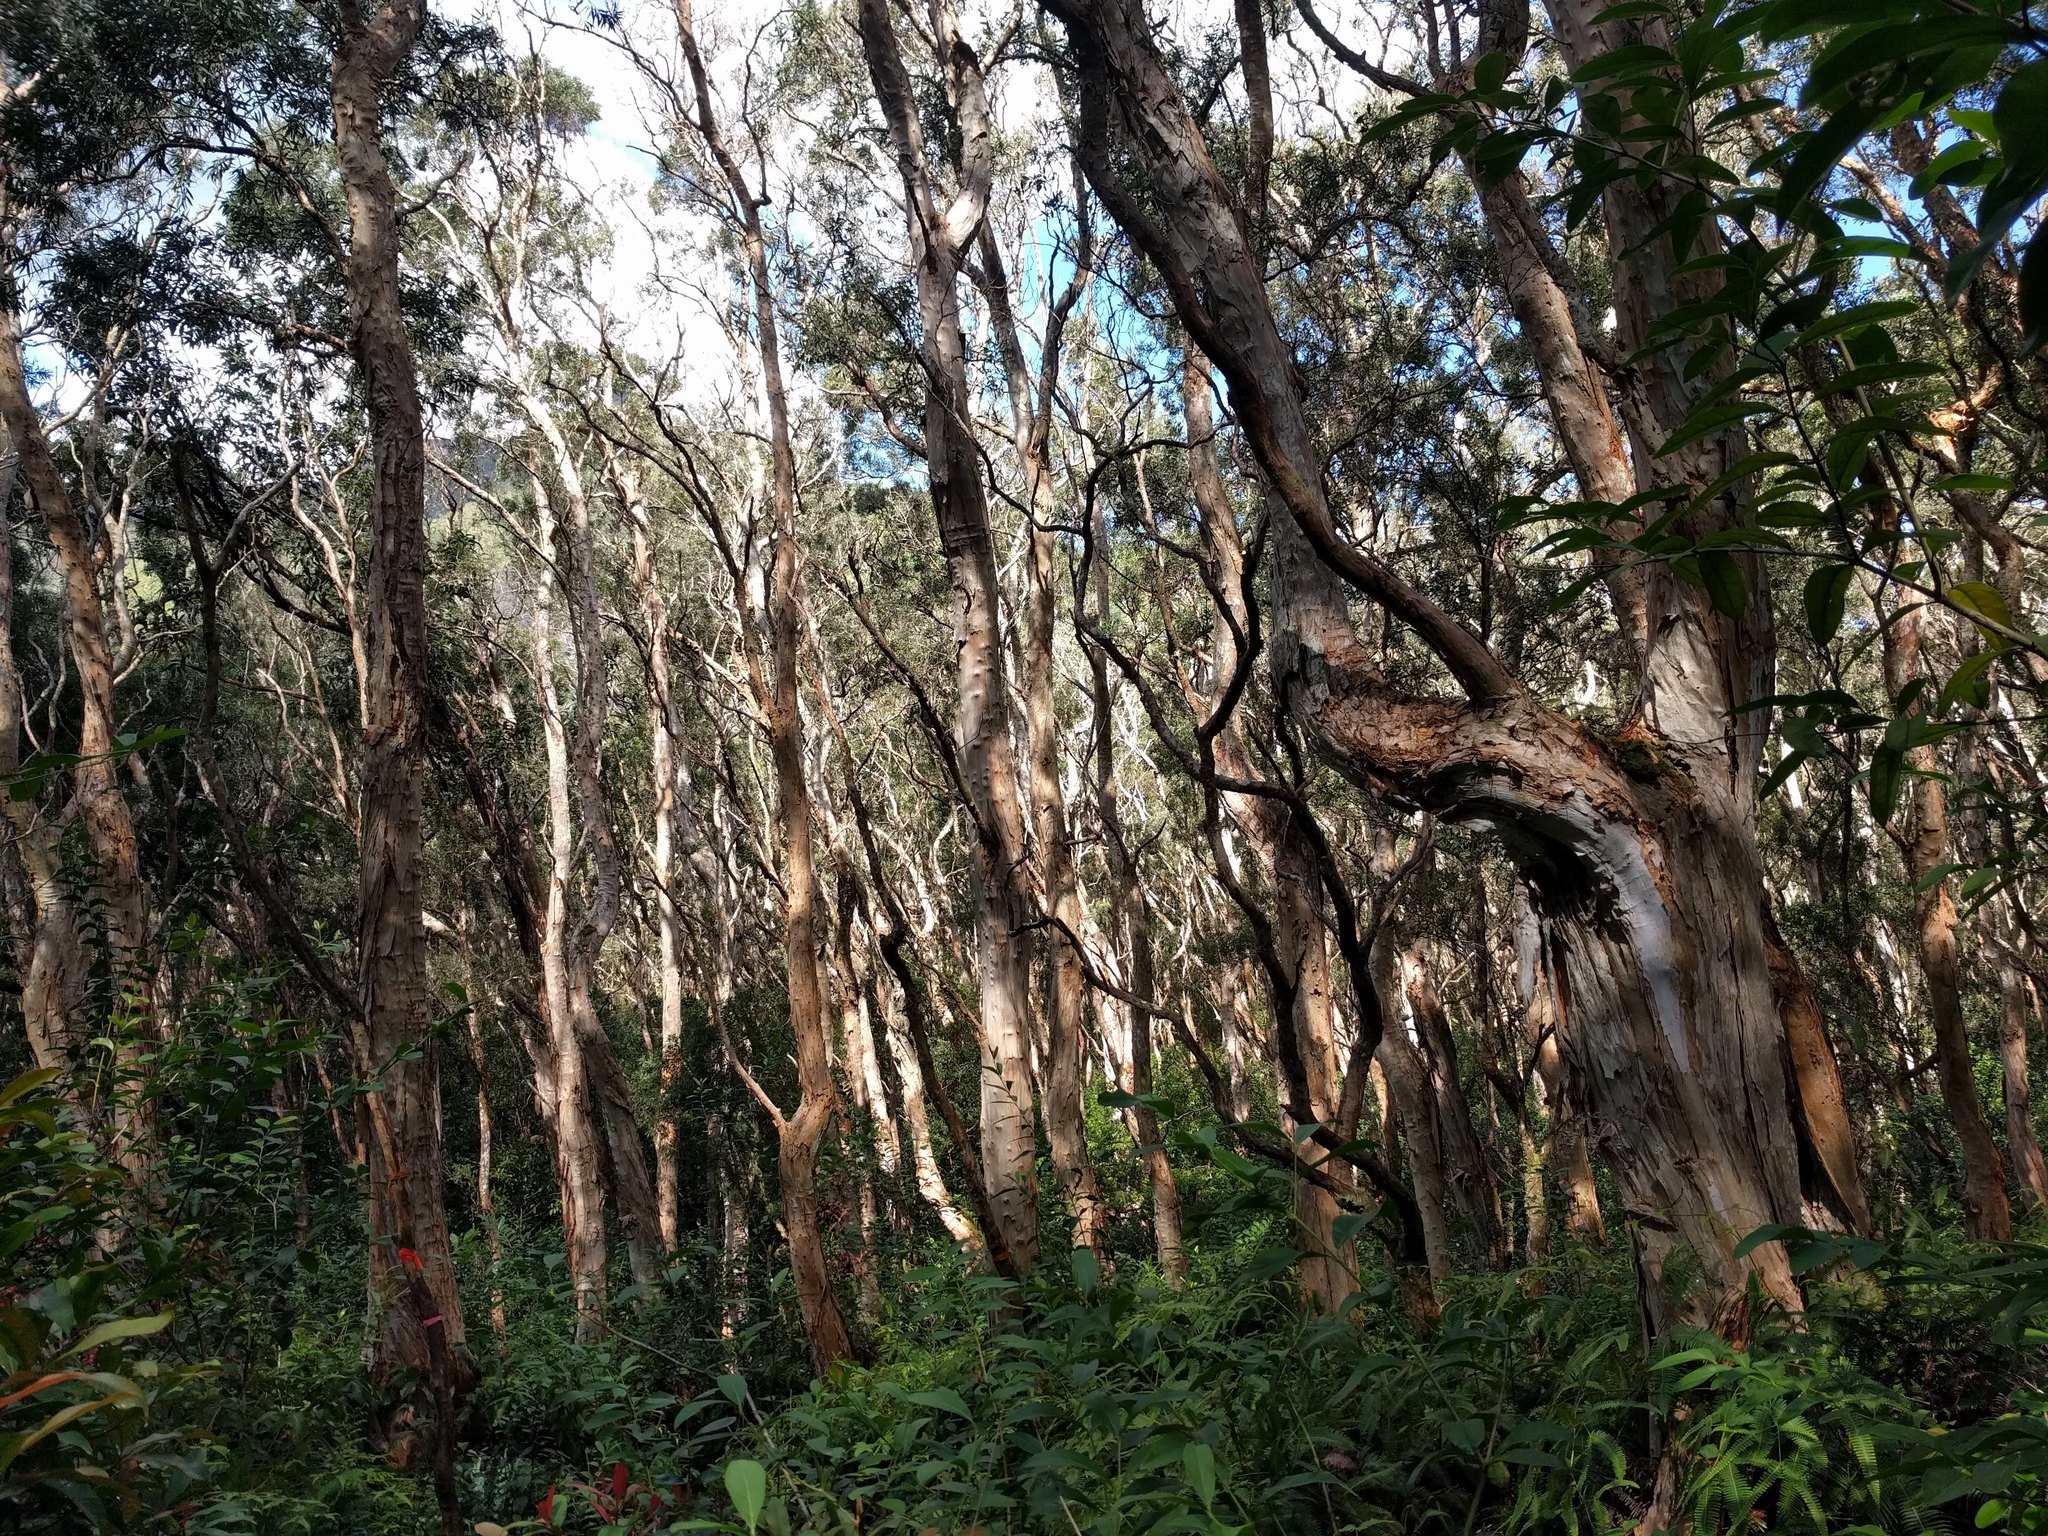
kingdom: Plantae
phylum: Tracheophyta
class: Magnoliopsida
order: Myrtales
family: Myrtaceae
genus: Melaleuca
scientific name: Melaleuca quinquenervia
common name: Punktree
